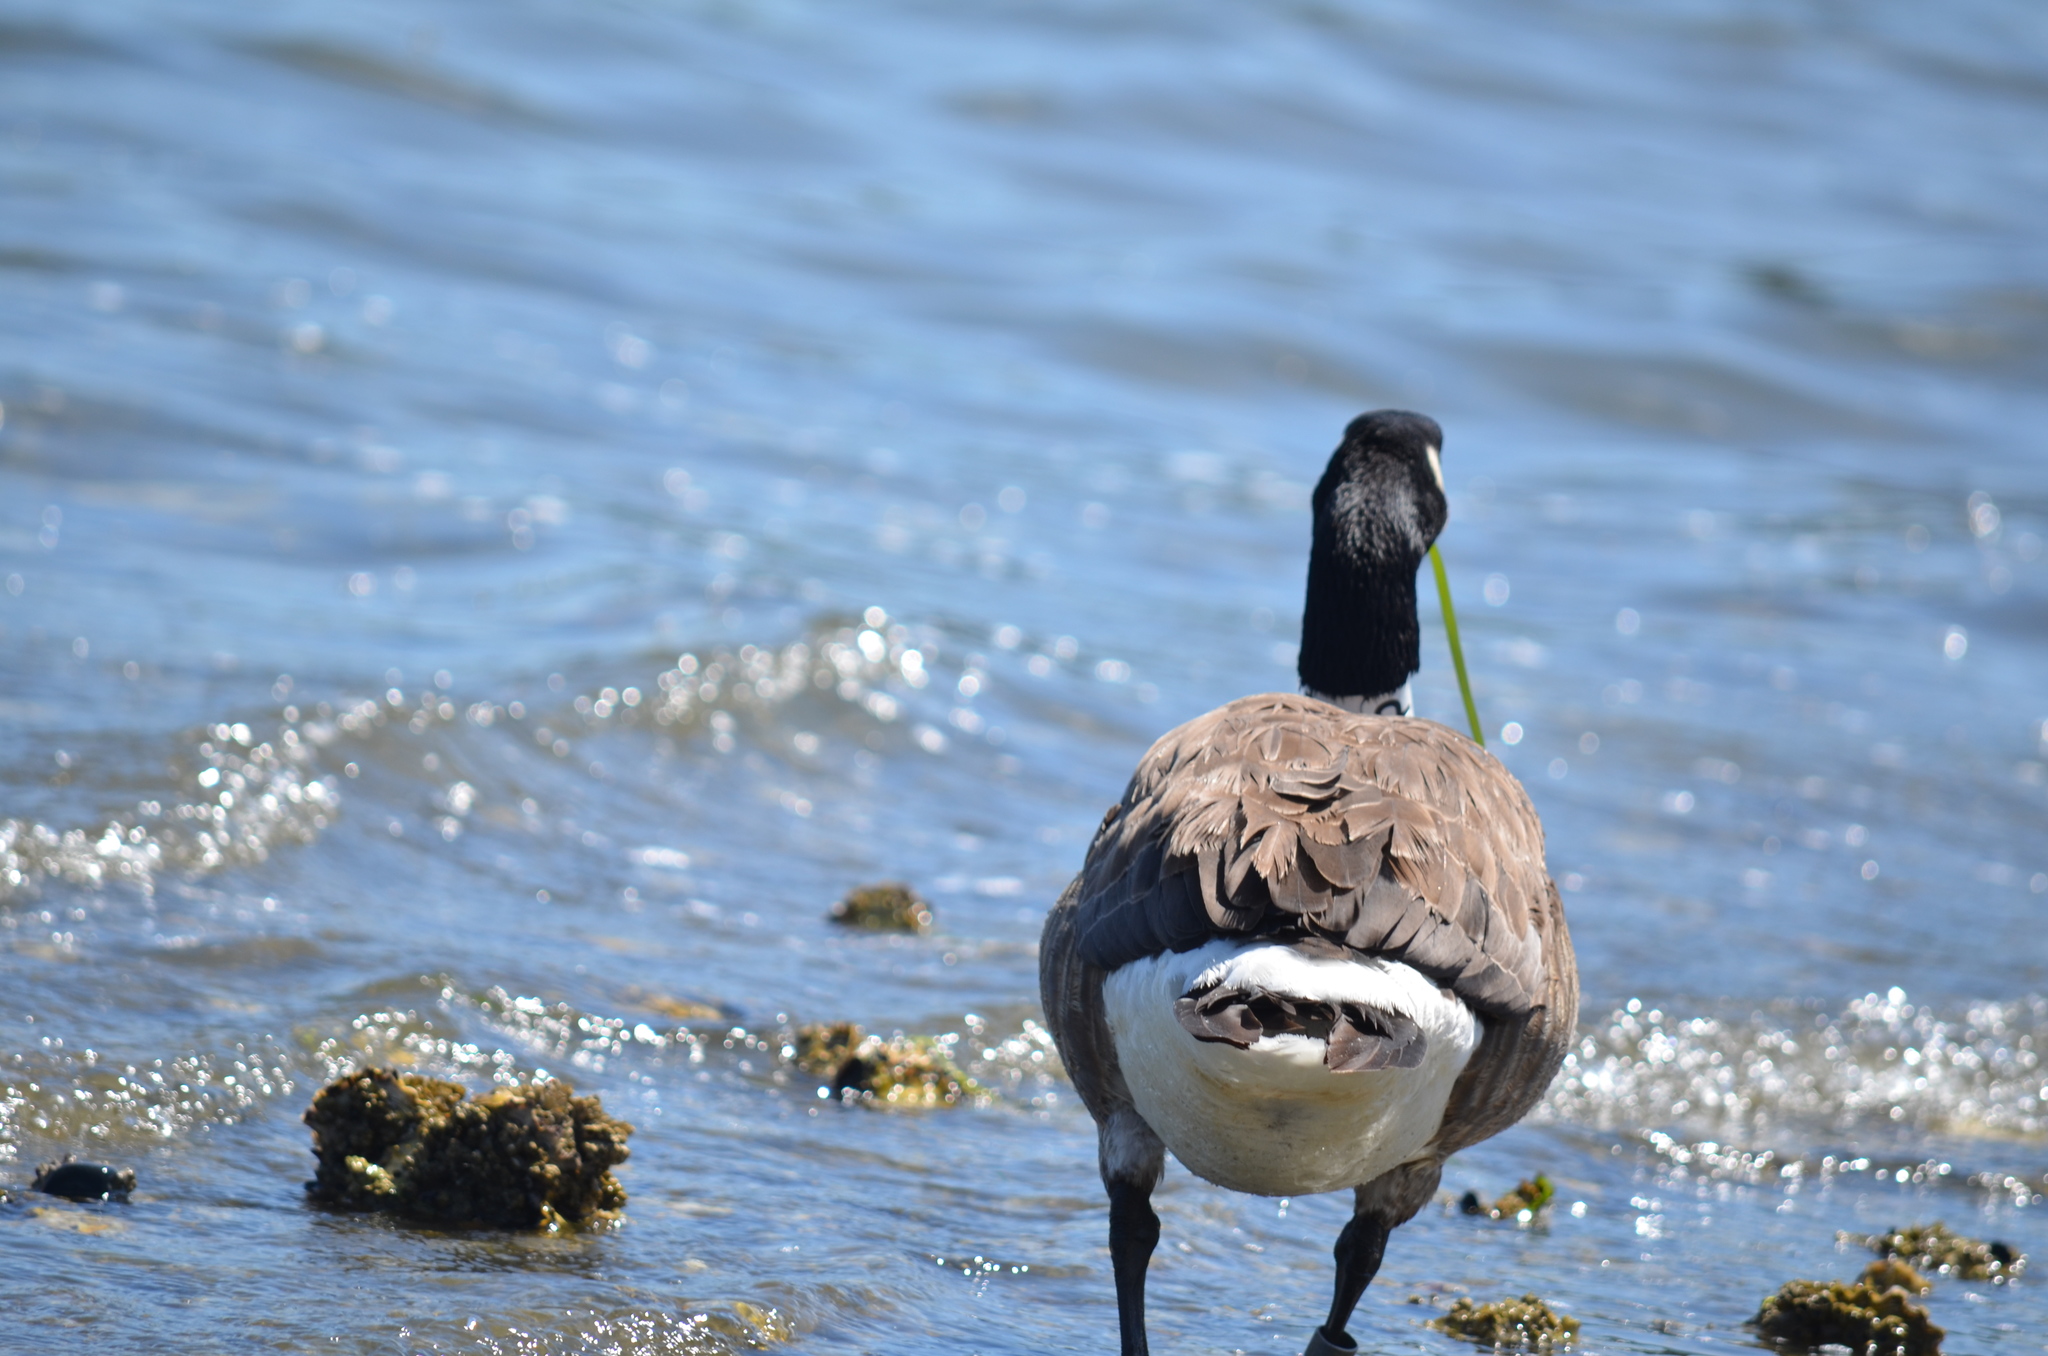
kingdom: Animalia
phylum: Chordata
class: Aves
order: Anseriformes
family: Anatidae
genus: Branta
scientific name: Branta canadensis
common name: Canada goose
